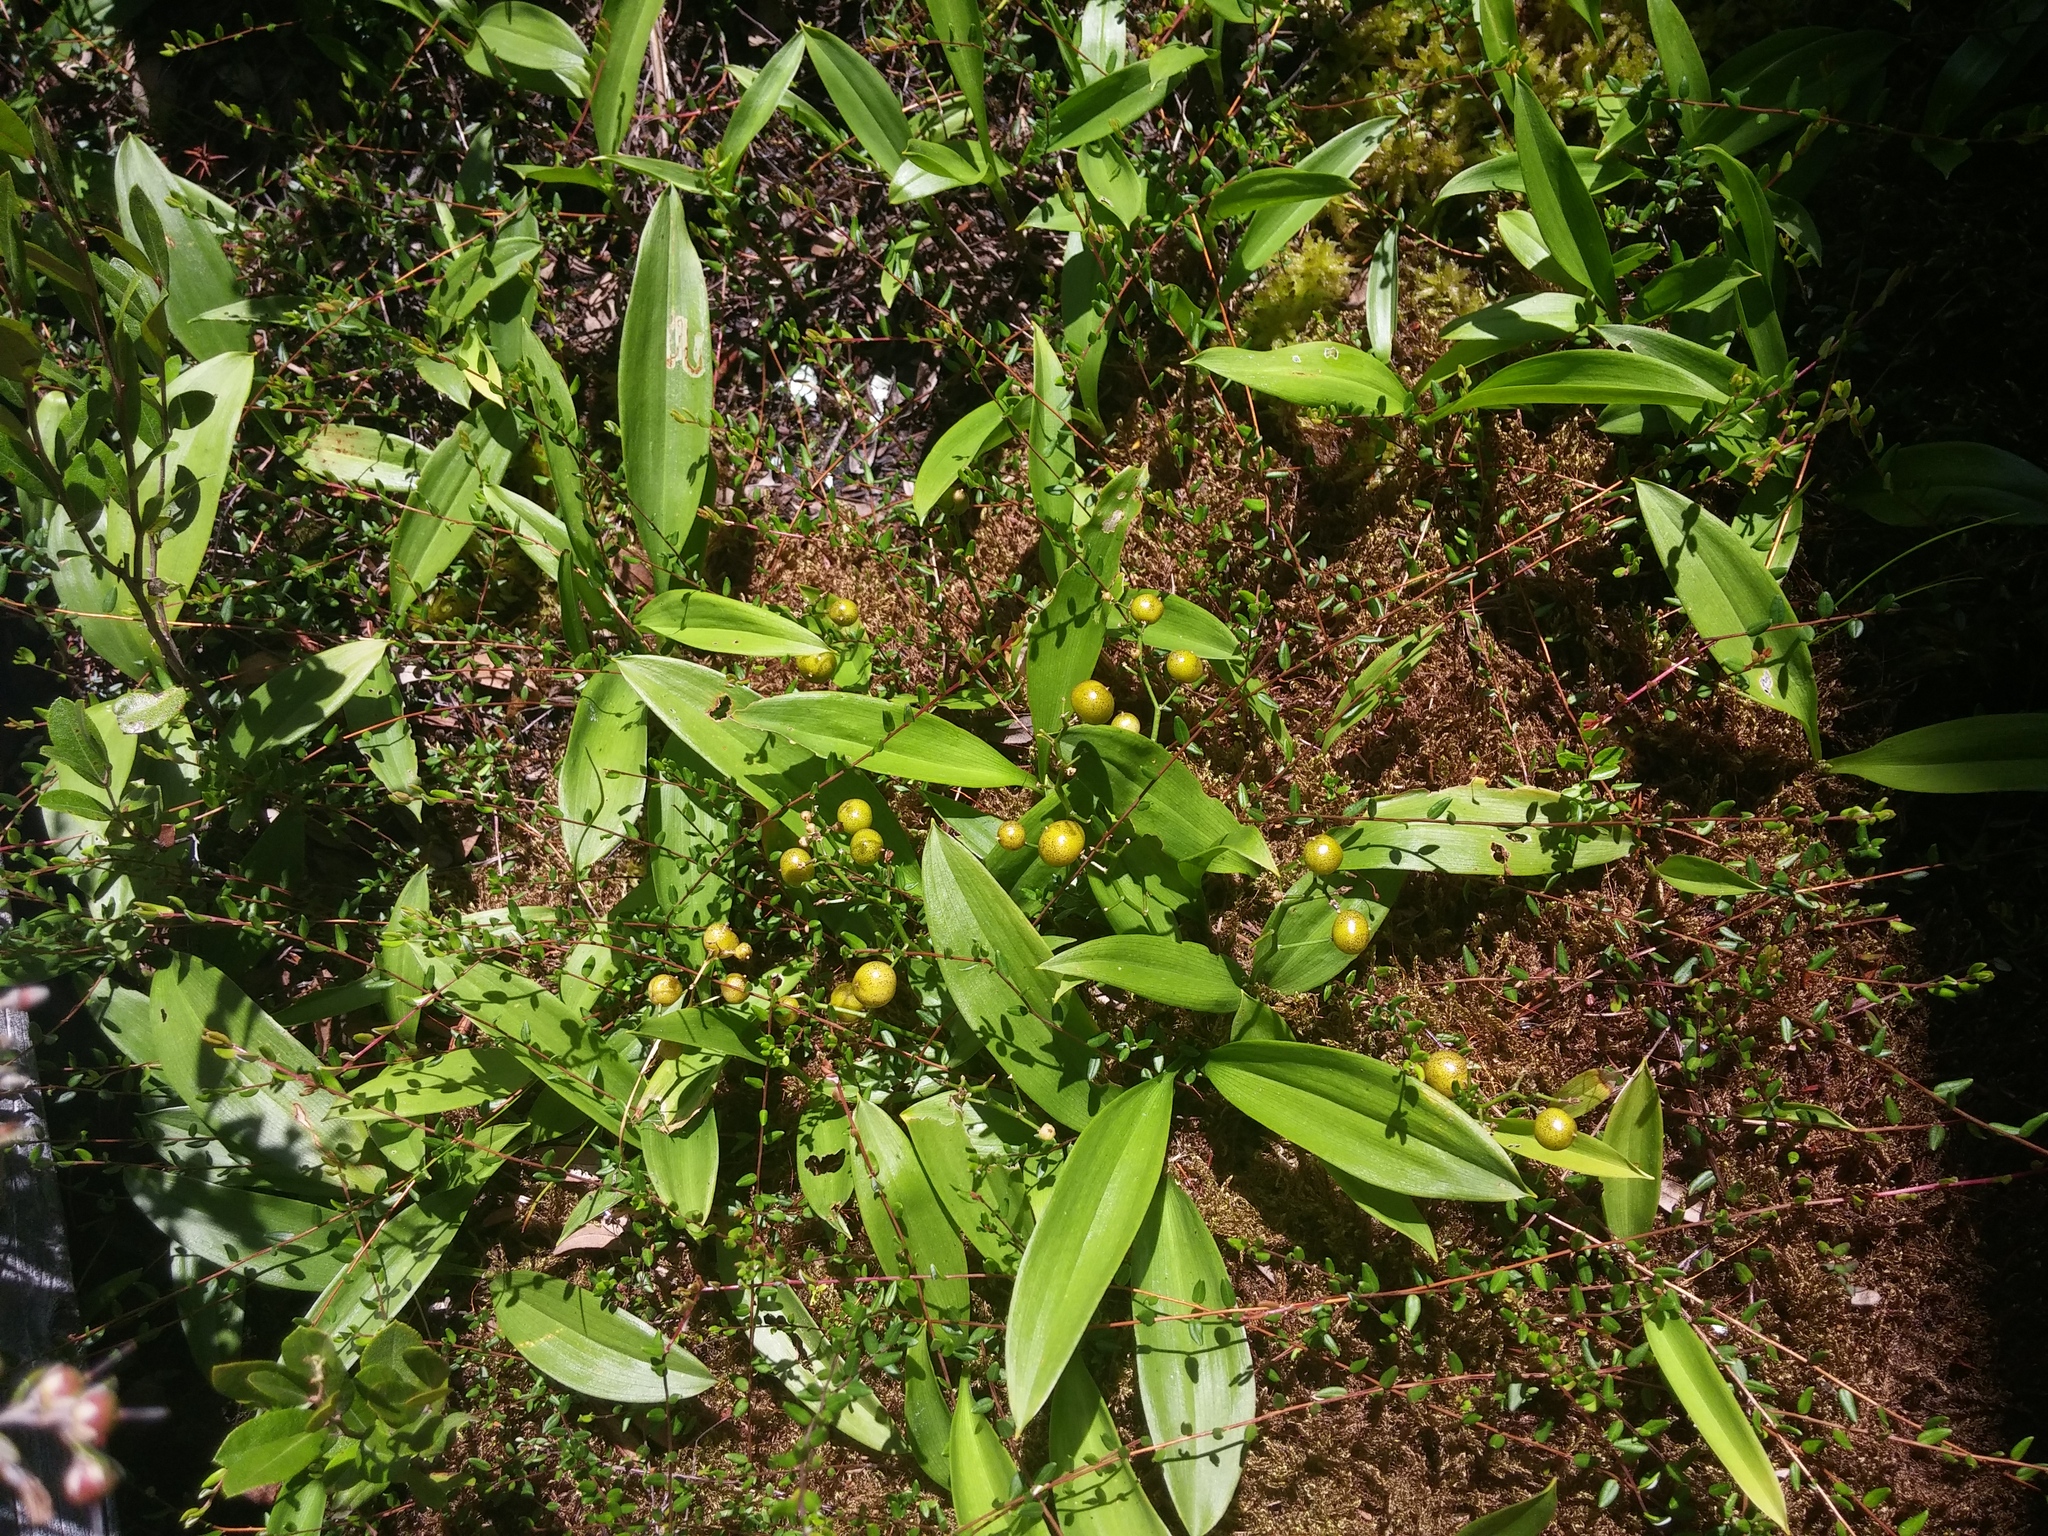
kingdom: Plantae
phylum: Tracheophyta
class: Liliopsida
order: Asparagales
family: Asparagaceae
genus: Maianthemum
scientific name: Maianthemum trifolium
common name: Swamp false solomon's seal
